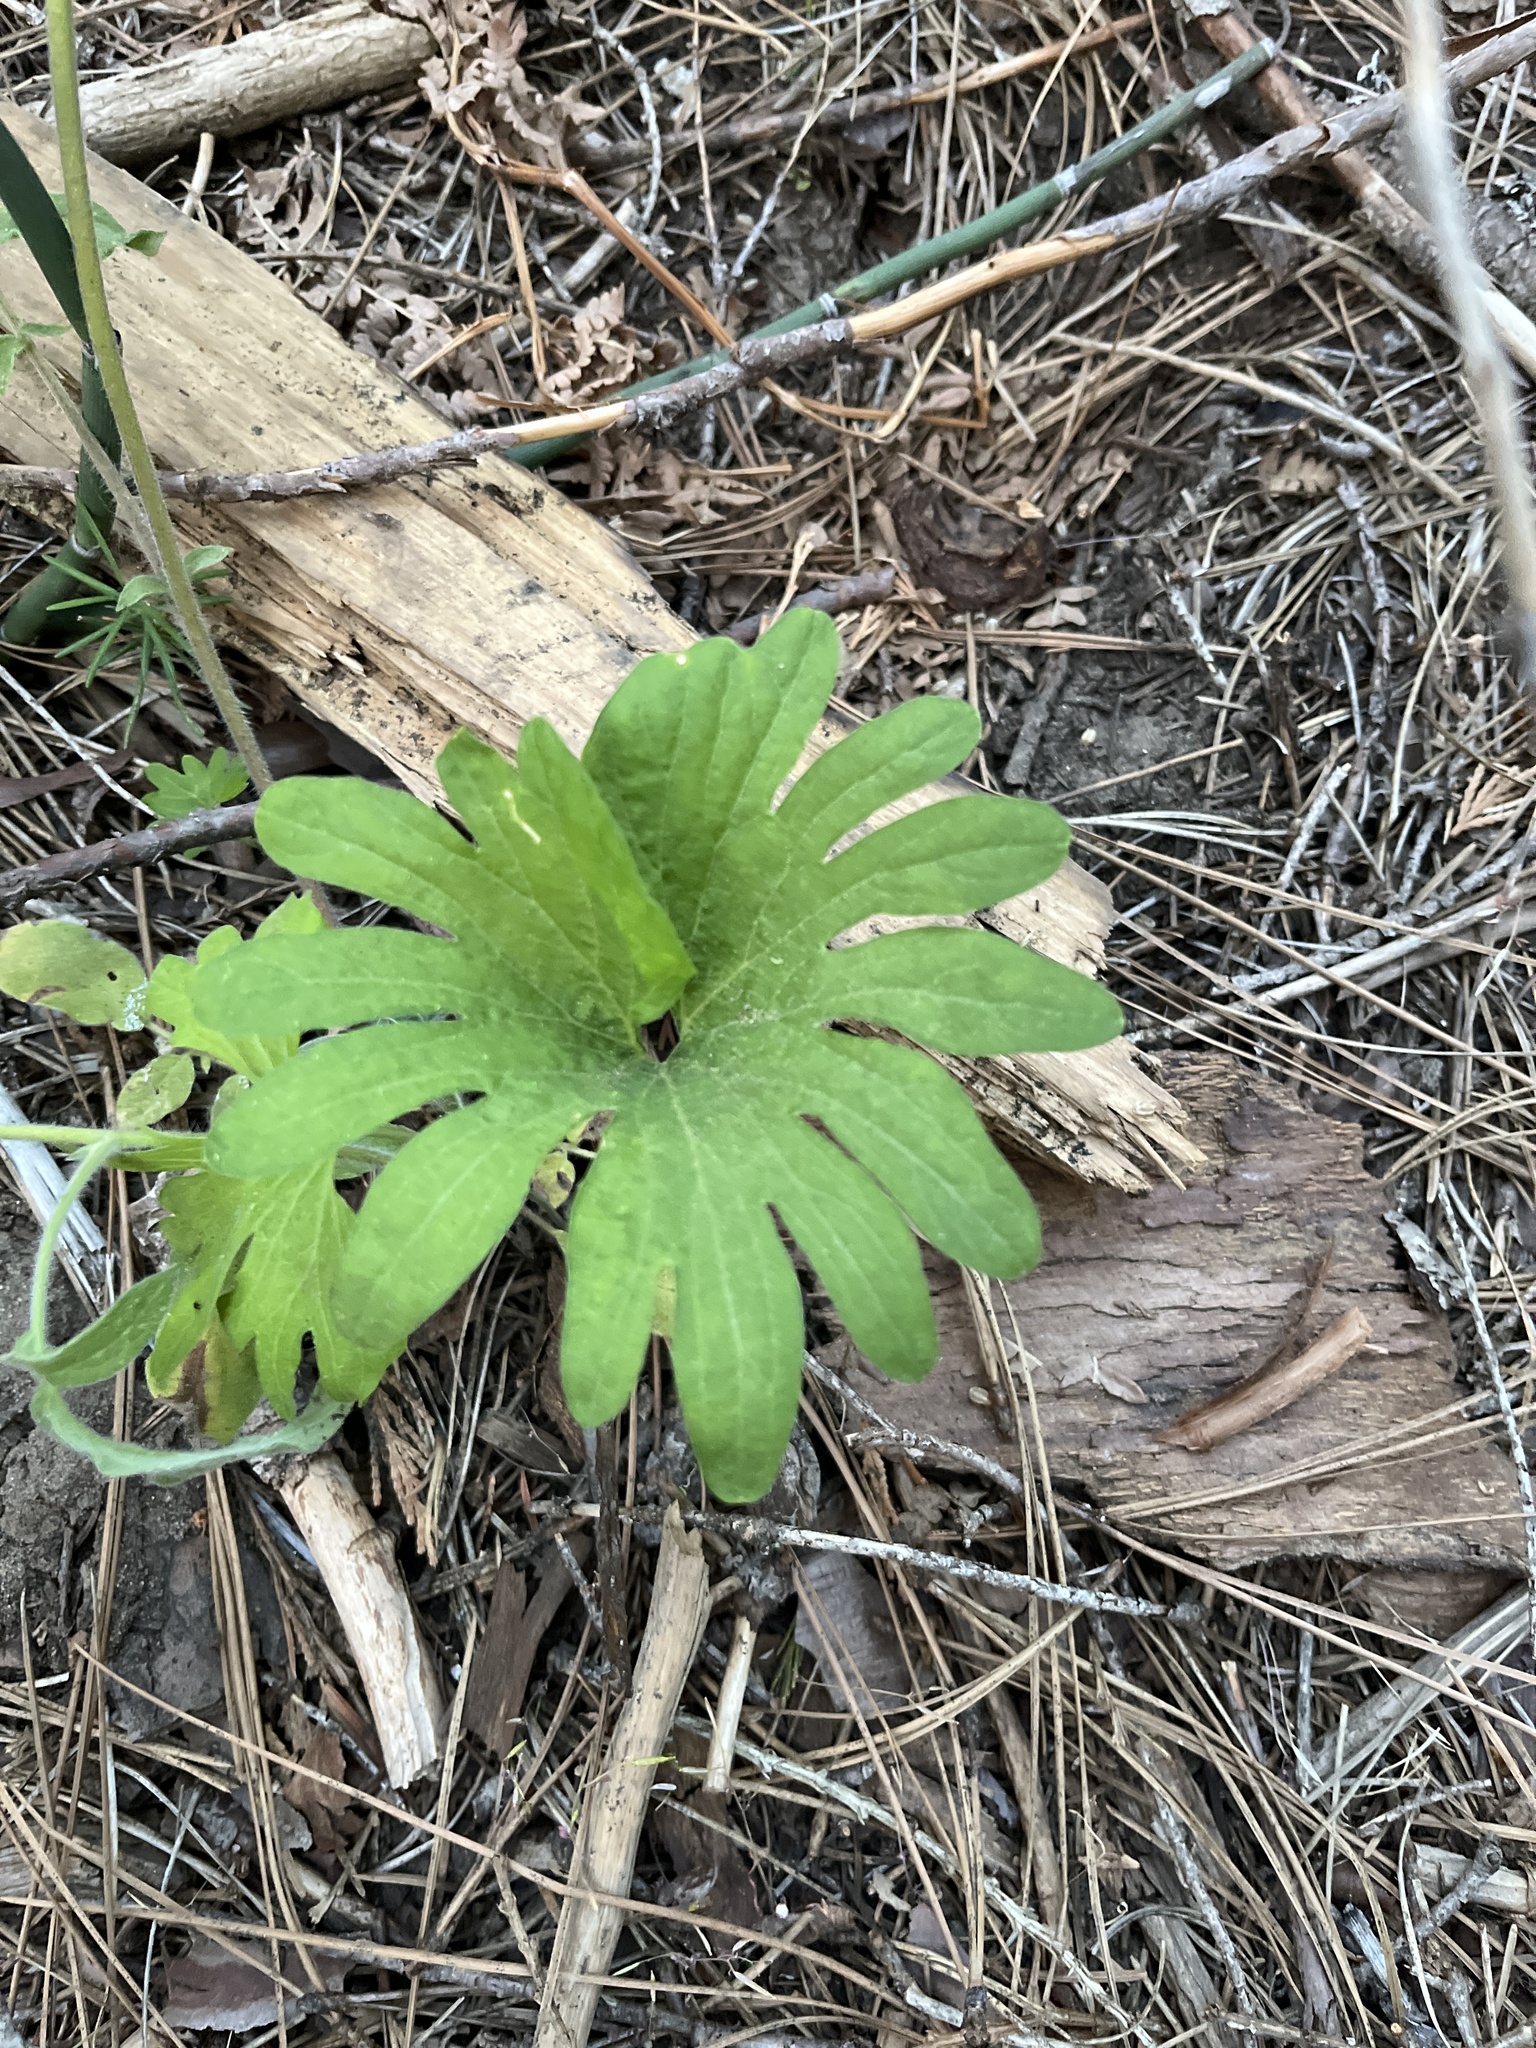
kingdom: Plantae
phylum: Tracheophyta
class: Magnoliopsida
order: Malpighiales
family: Violaceae
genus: Viola
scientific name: Viola lobata
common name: Pine violet
